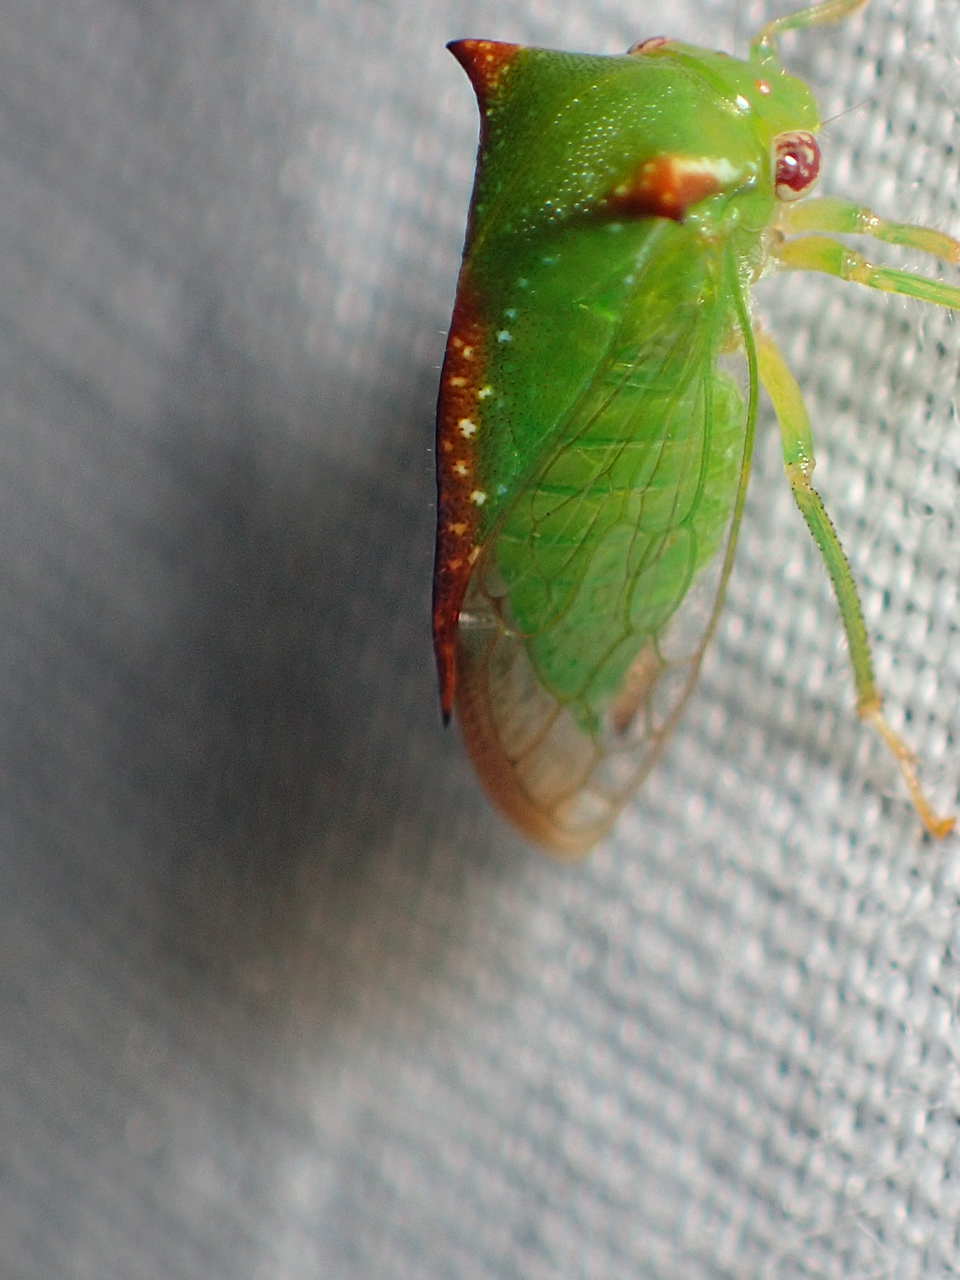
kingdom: Animalia
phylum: Arthropoda
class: Insecta
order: Hemiptera
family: Membracidae
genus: Stictocephala
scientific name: Stictocephala militaris
